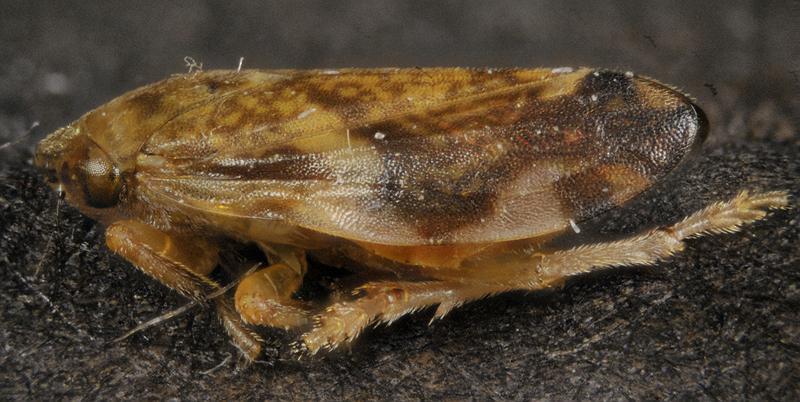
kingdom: Animalia
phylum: Arthropoda
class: Insecta
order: Hemiptera
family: Aphrophoridae
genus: Philaenus
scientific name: Philaenus spumarius
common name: Meadow spittlebug
